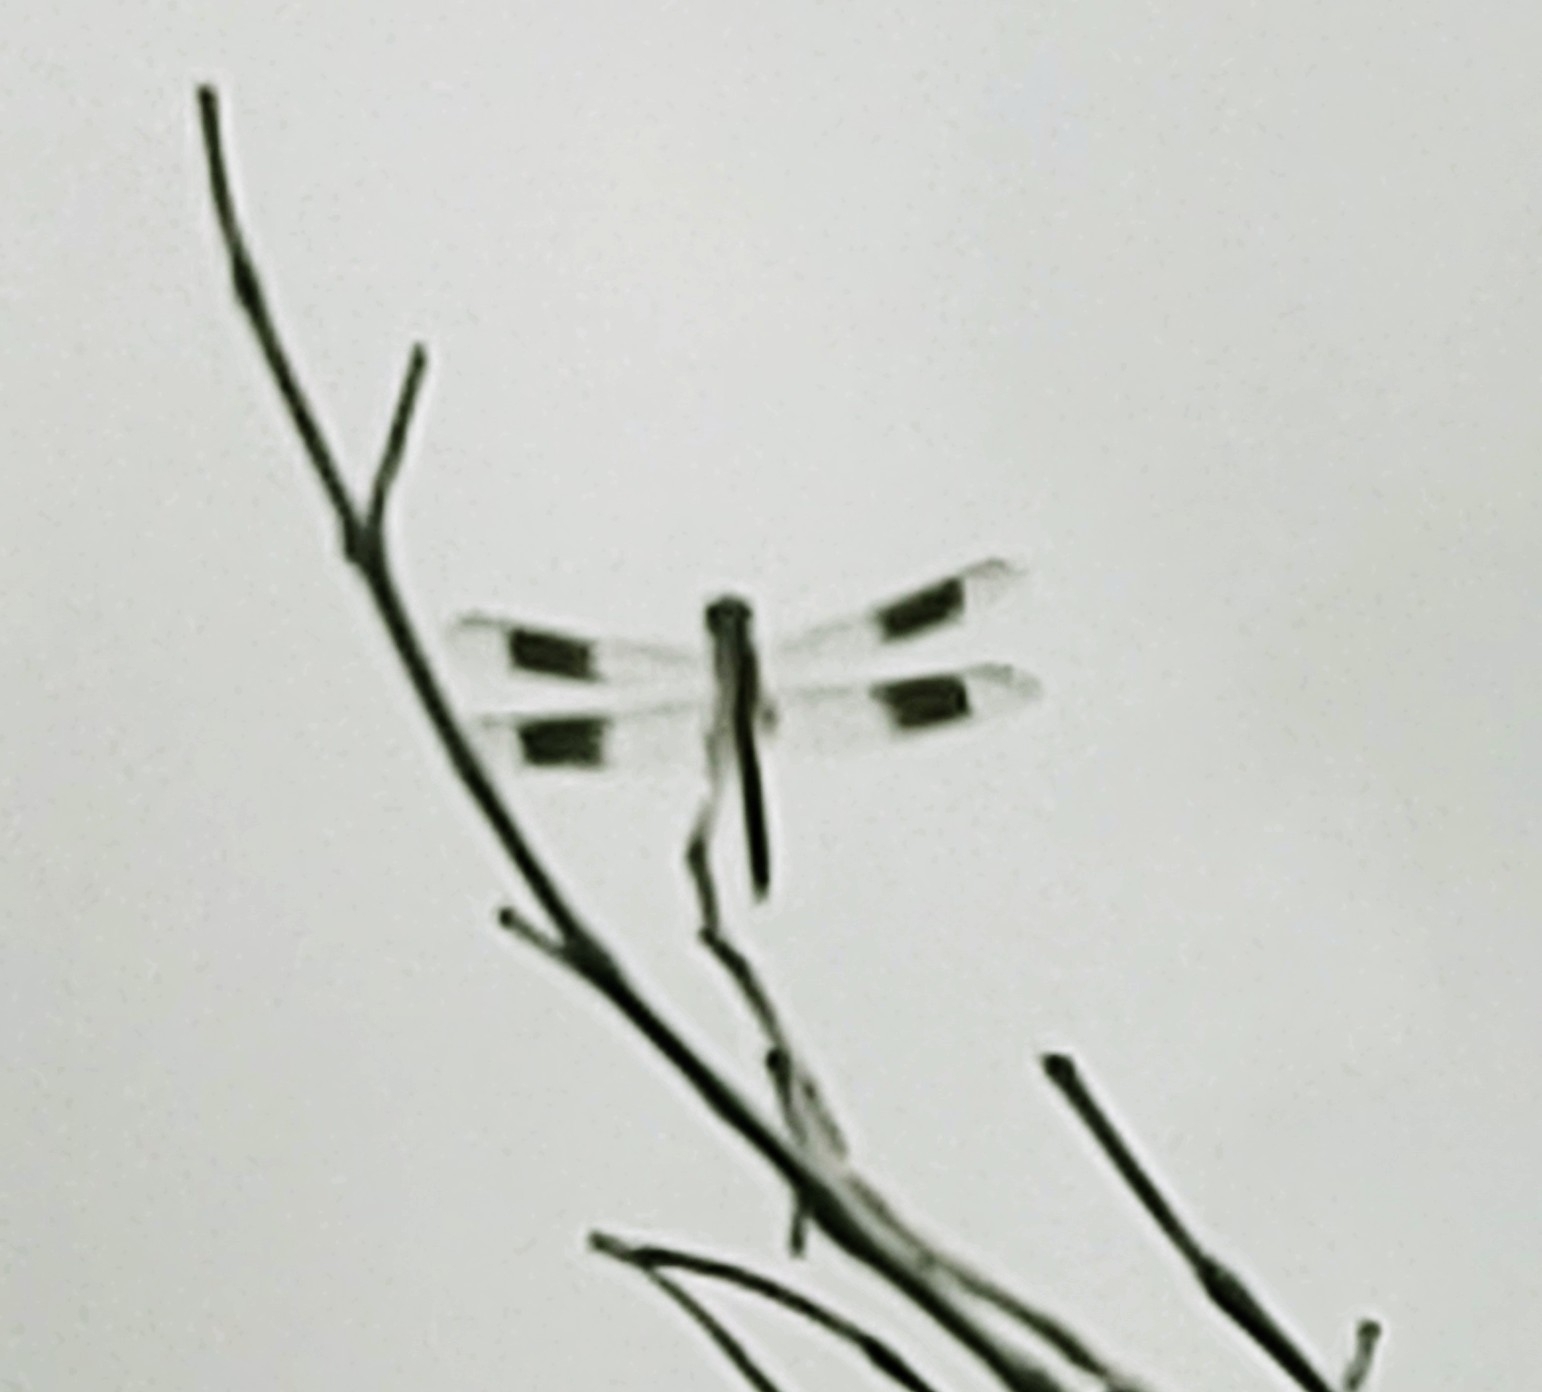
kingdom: Animalia
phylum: Arthropoda
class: Insecta
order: Odonata
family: Libellulidae
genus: Erythrodiplax
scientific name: Erythrodiplax umbrata
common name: Band-winged dragonlet
